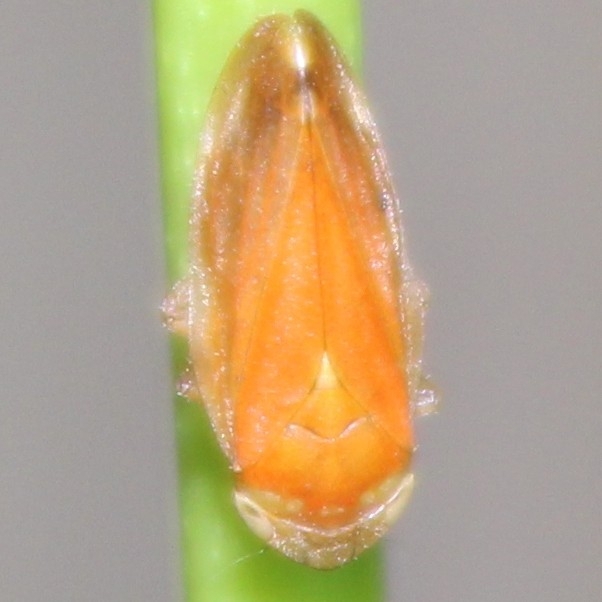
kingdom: Animalia
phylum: Arthropoda
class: Insecta
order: Hemiptera
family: Aphrophoridae
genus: Philaenus
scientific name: Philaenus spumarius
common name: Meadow spittlebug
